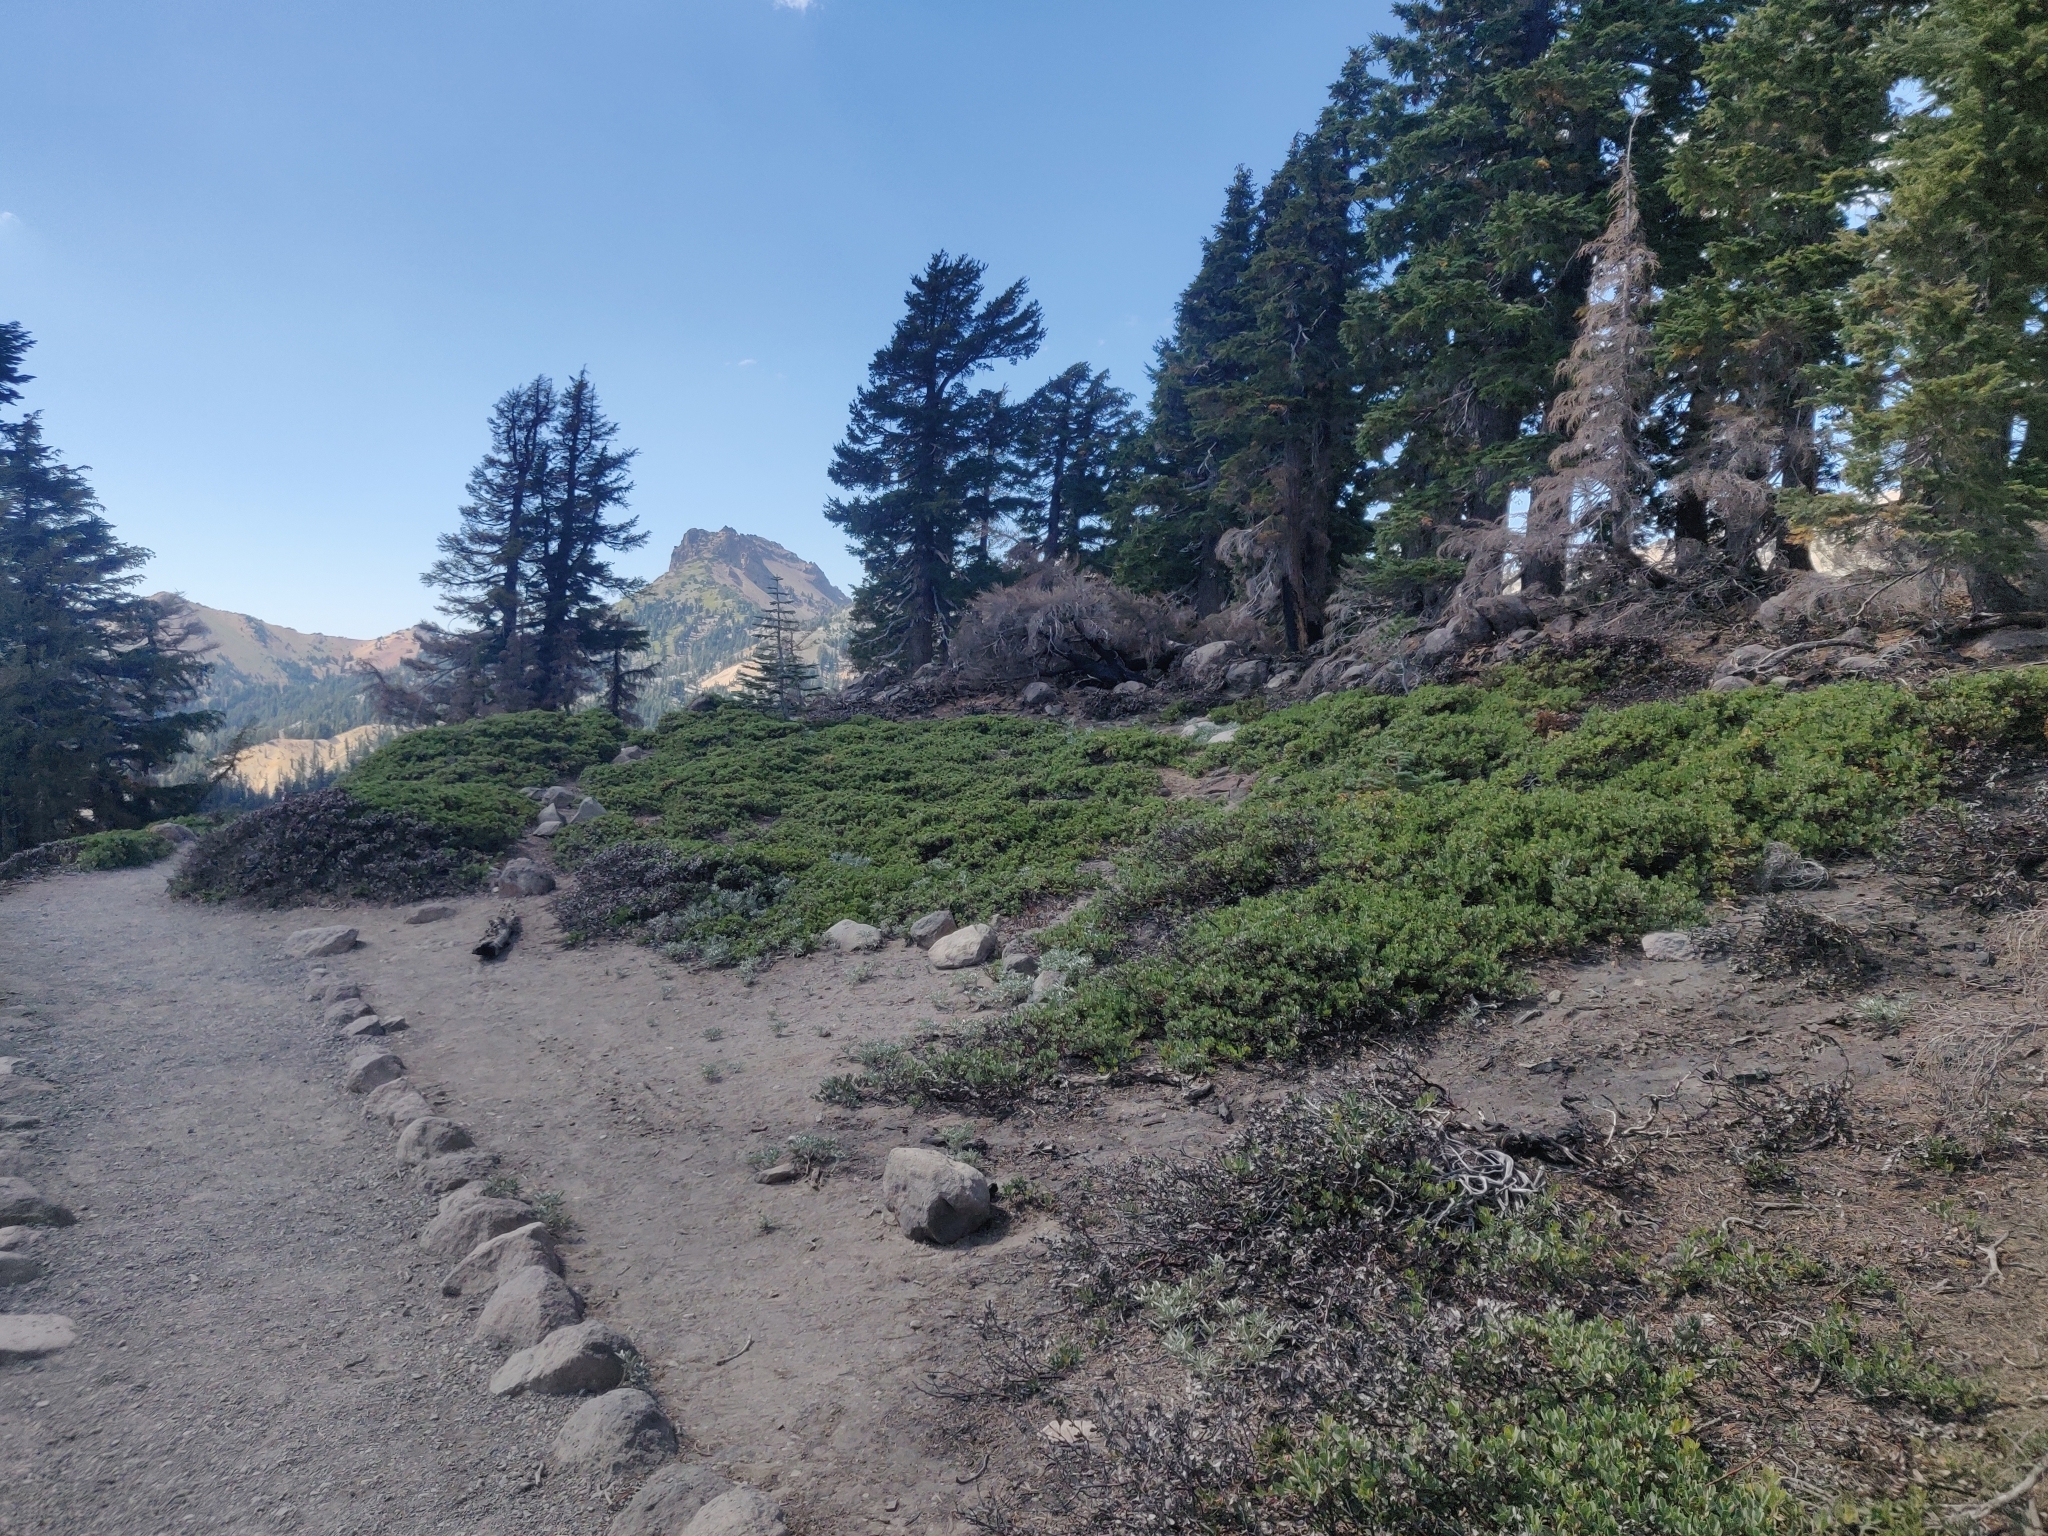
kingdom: Plantae
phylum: Tracheophyta
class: Magnoliopsida
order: Ericales
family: Ericaceae
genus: Arctostaphylos
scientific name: Arctostaphylos nevadensis
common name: Pinemat manzanita
